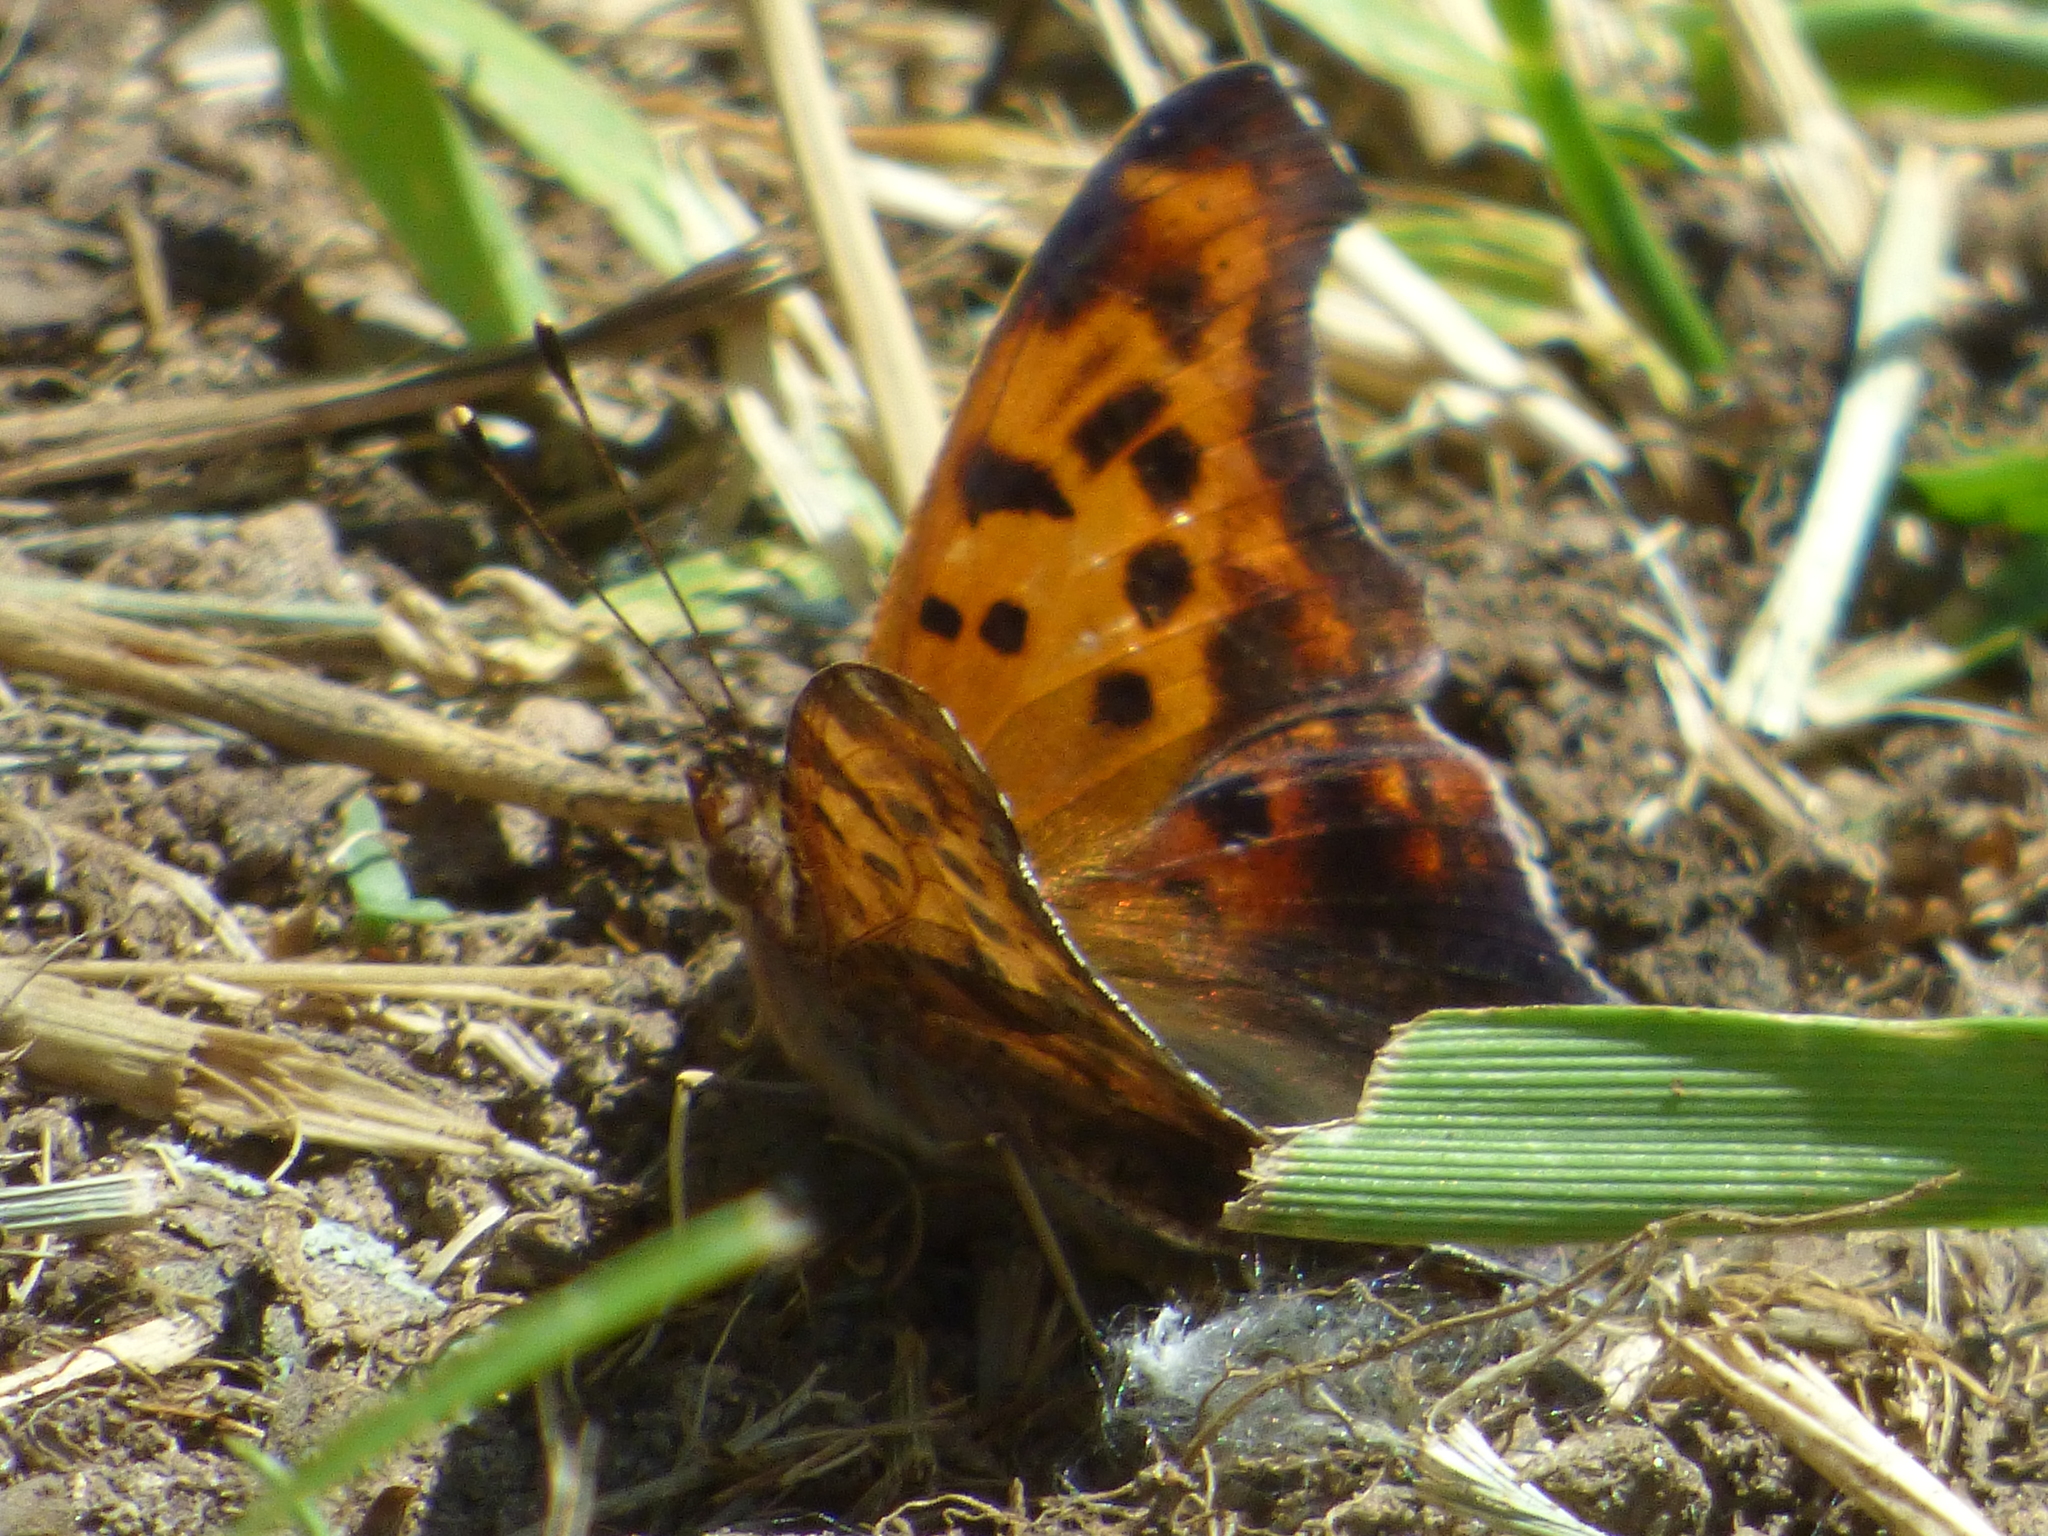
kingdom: Animalia
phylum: Arthropoda
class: Insecta
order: Lepidoptera
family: Nymphalidae
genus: Polygonia
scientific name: Polygonia interrogationis
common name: Question mark
